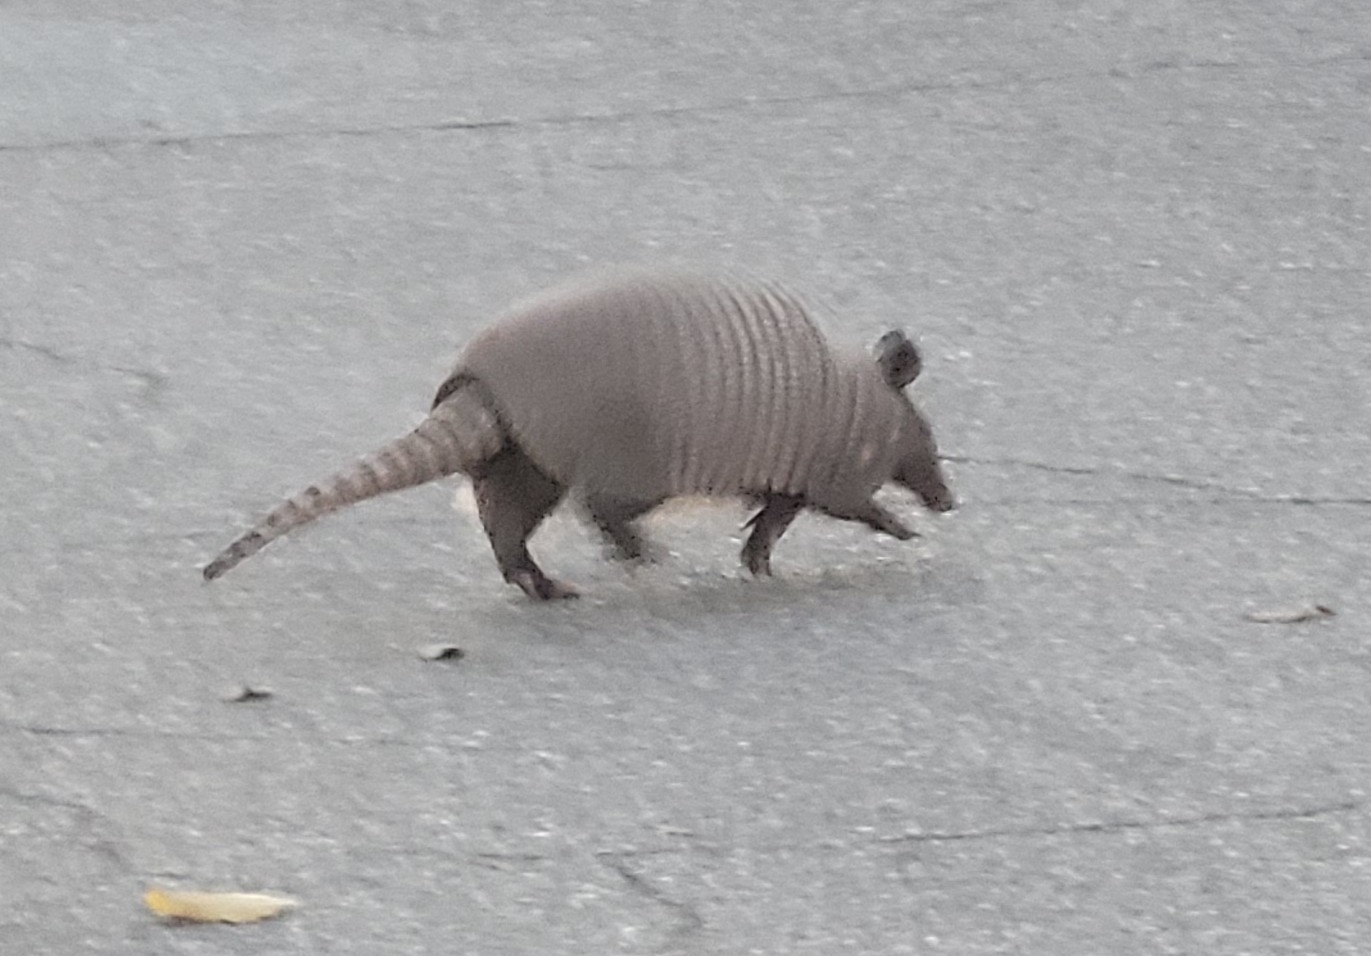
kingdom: Animalia
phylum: Chordata
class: Mammalia
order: Cingulata
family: Dasypodidae
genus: Dasypus
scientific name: Dasypus novemcinctus
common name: Nine-banded armadillo
